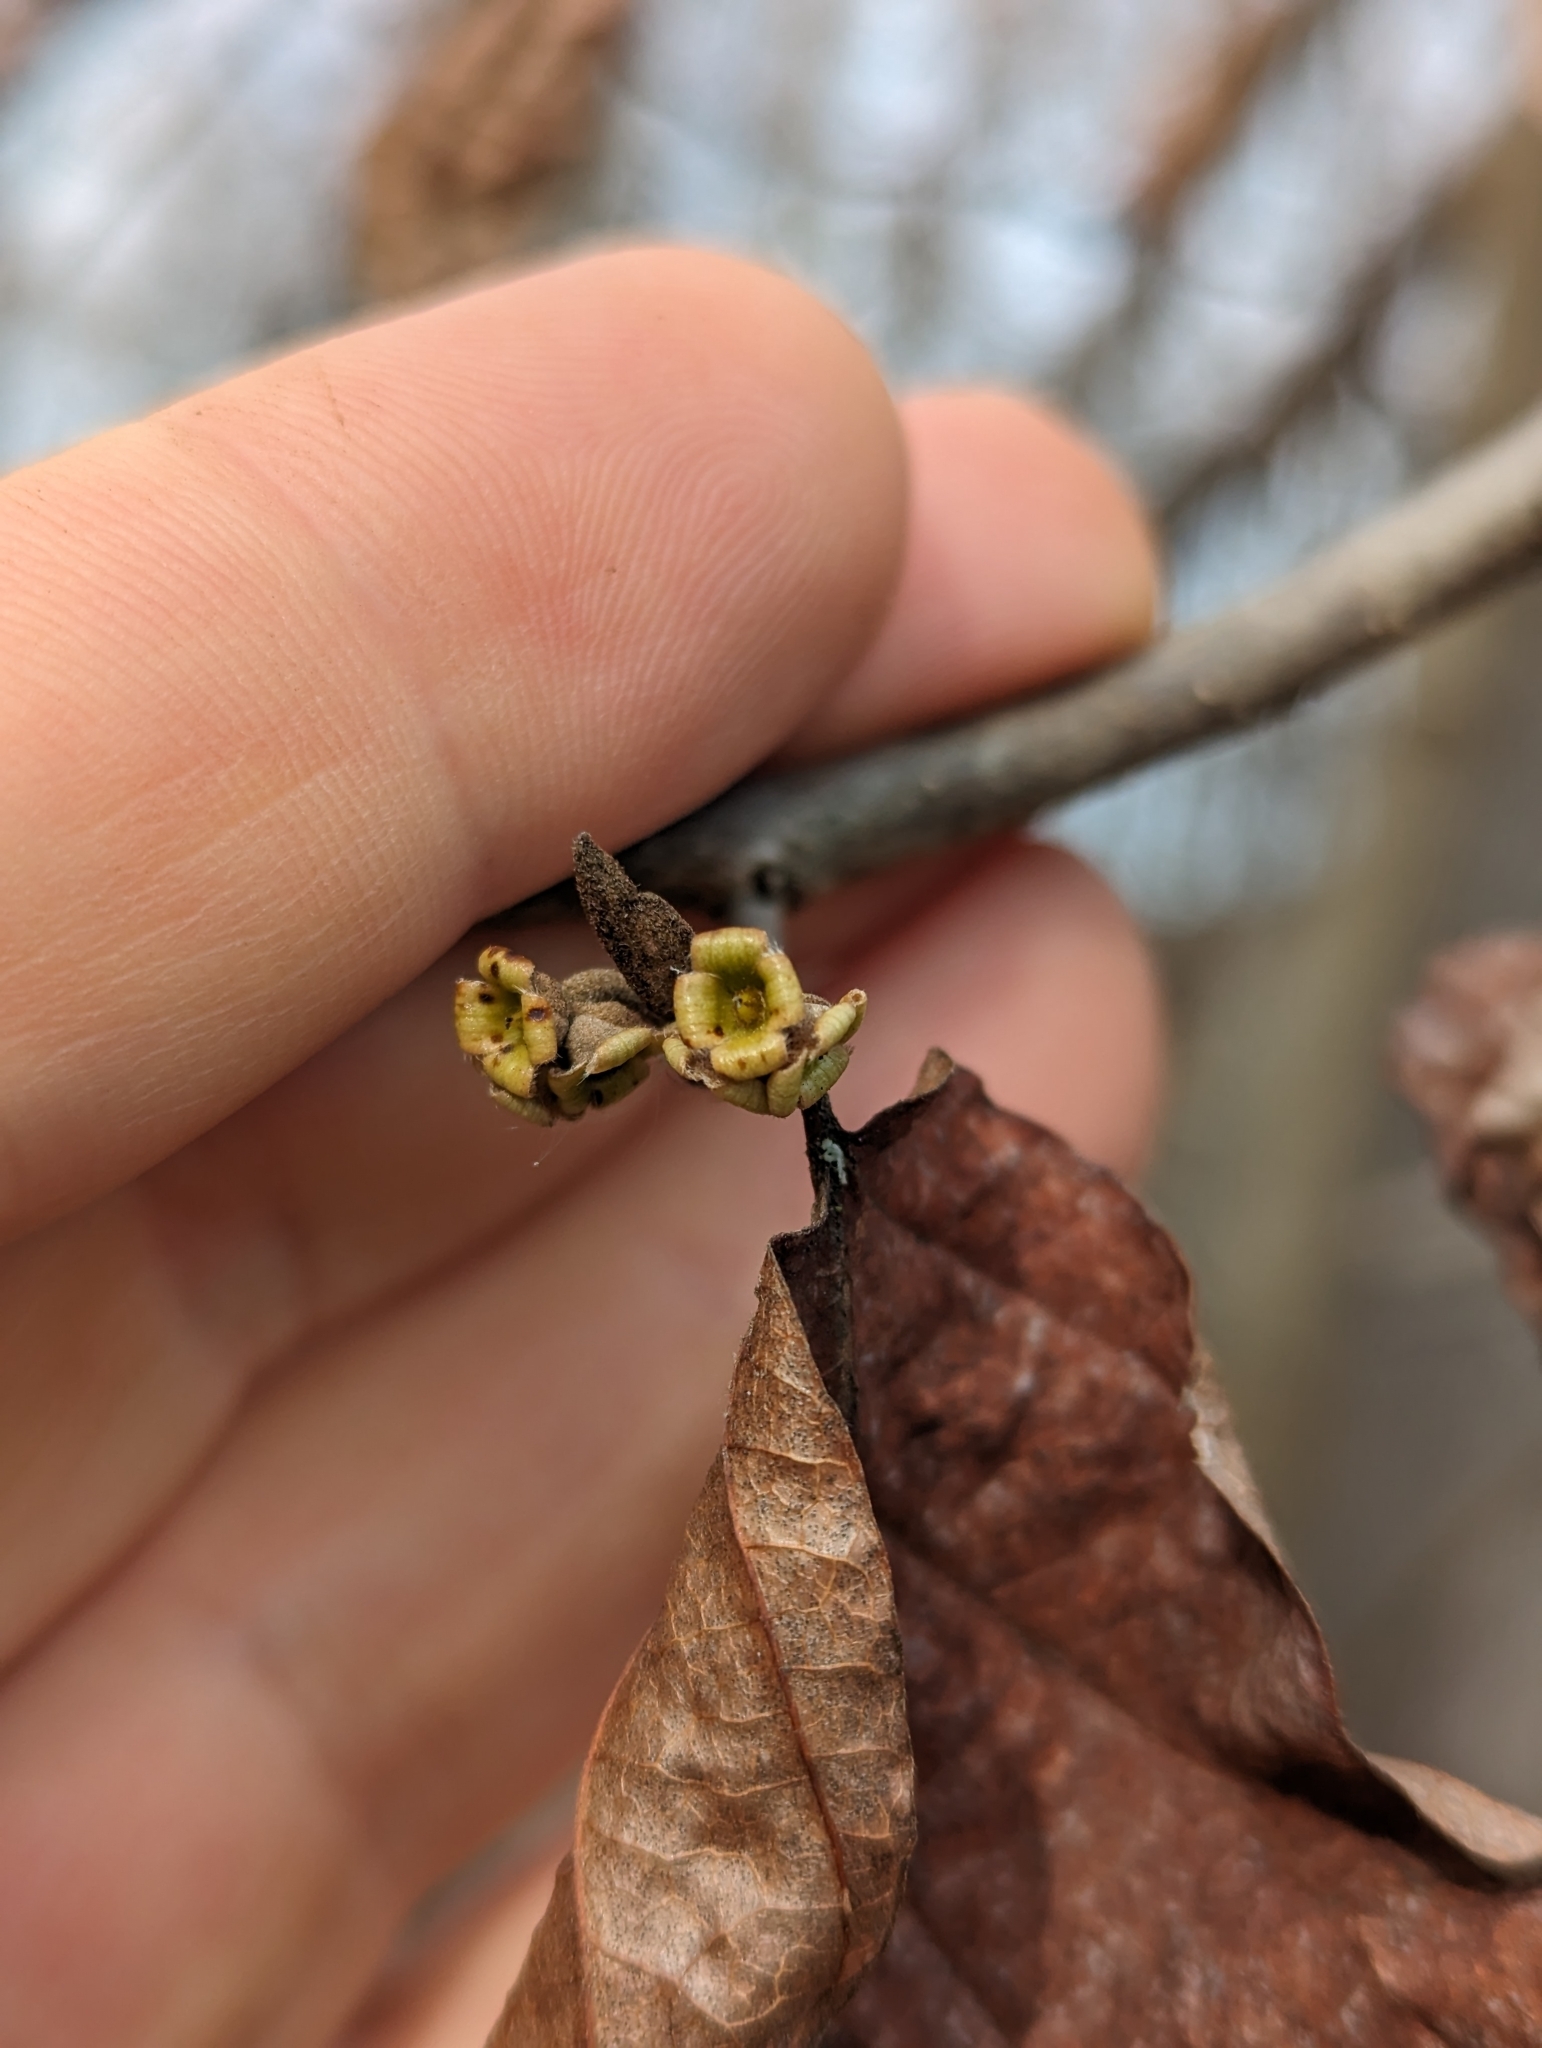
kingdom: Plantae
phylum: Tracheophyta
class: Magnoliopsida
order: Saxifragales
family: Hamamelidaceae
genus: Hamamelis
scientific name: Hamamelis virginiana
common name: Witch-hazel
